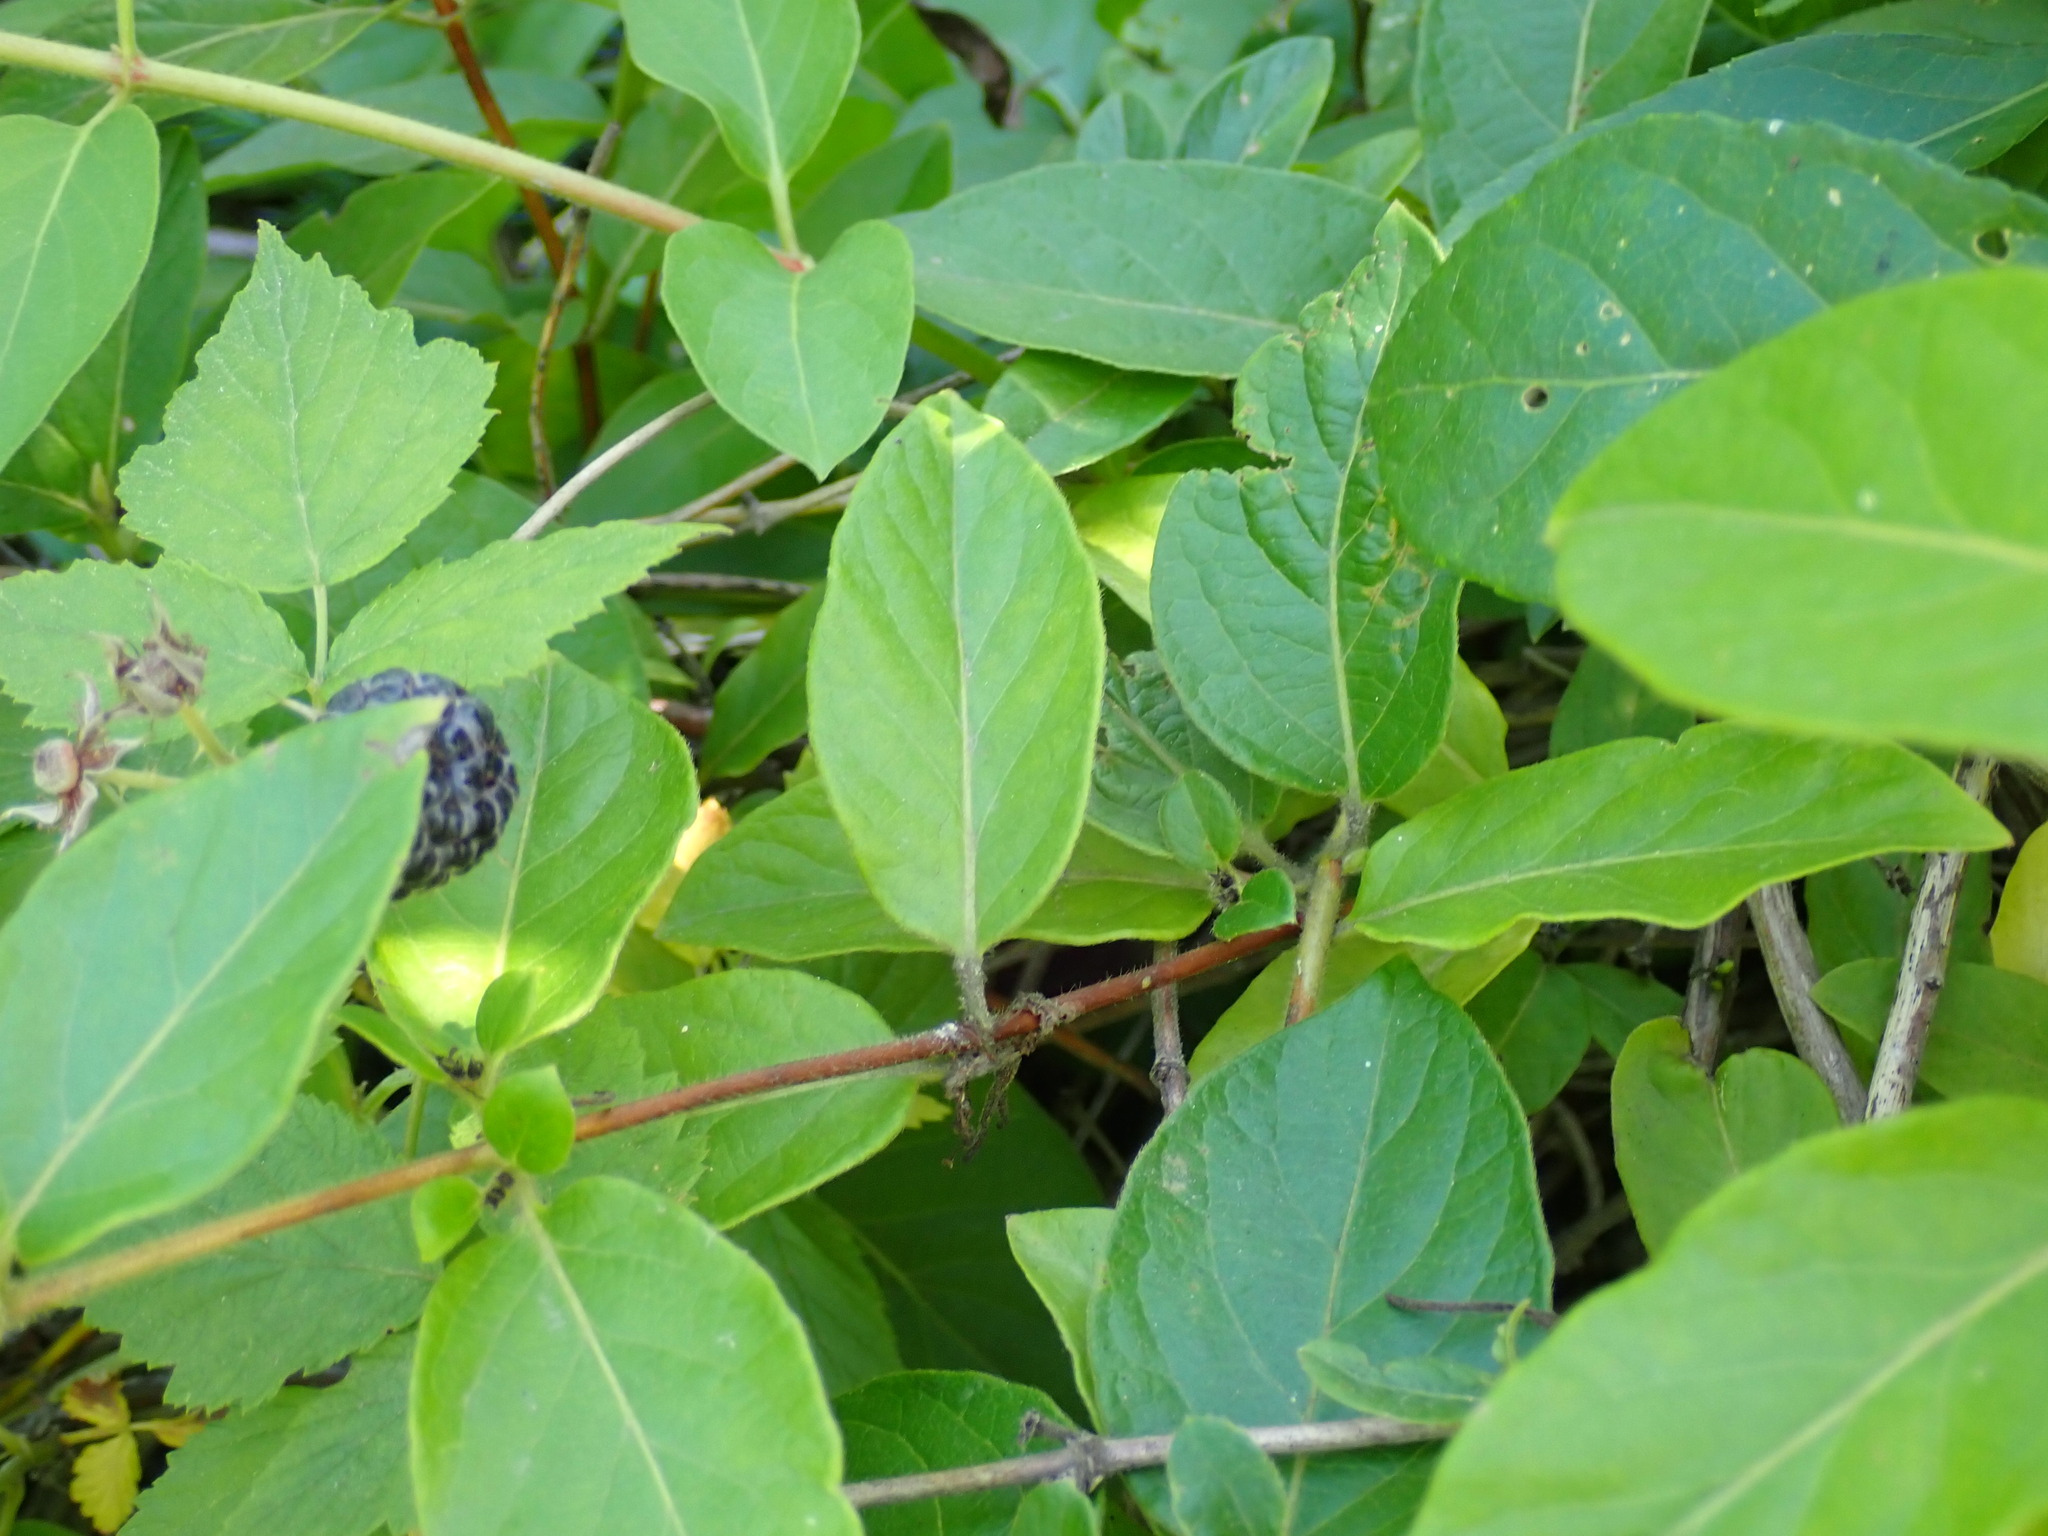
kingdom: Plantae
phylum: Tracheophyta
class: Magnoliopsida
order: Dipsacales
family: Caprifoliaceae
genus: Lonicera
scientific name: Lonicera japonica
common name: Japanese honeysuckle
